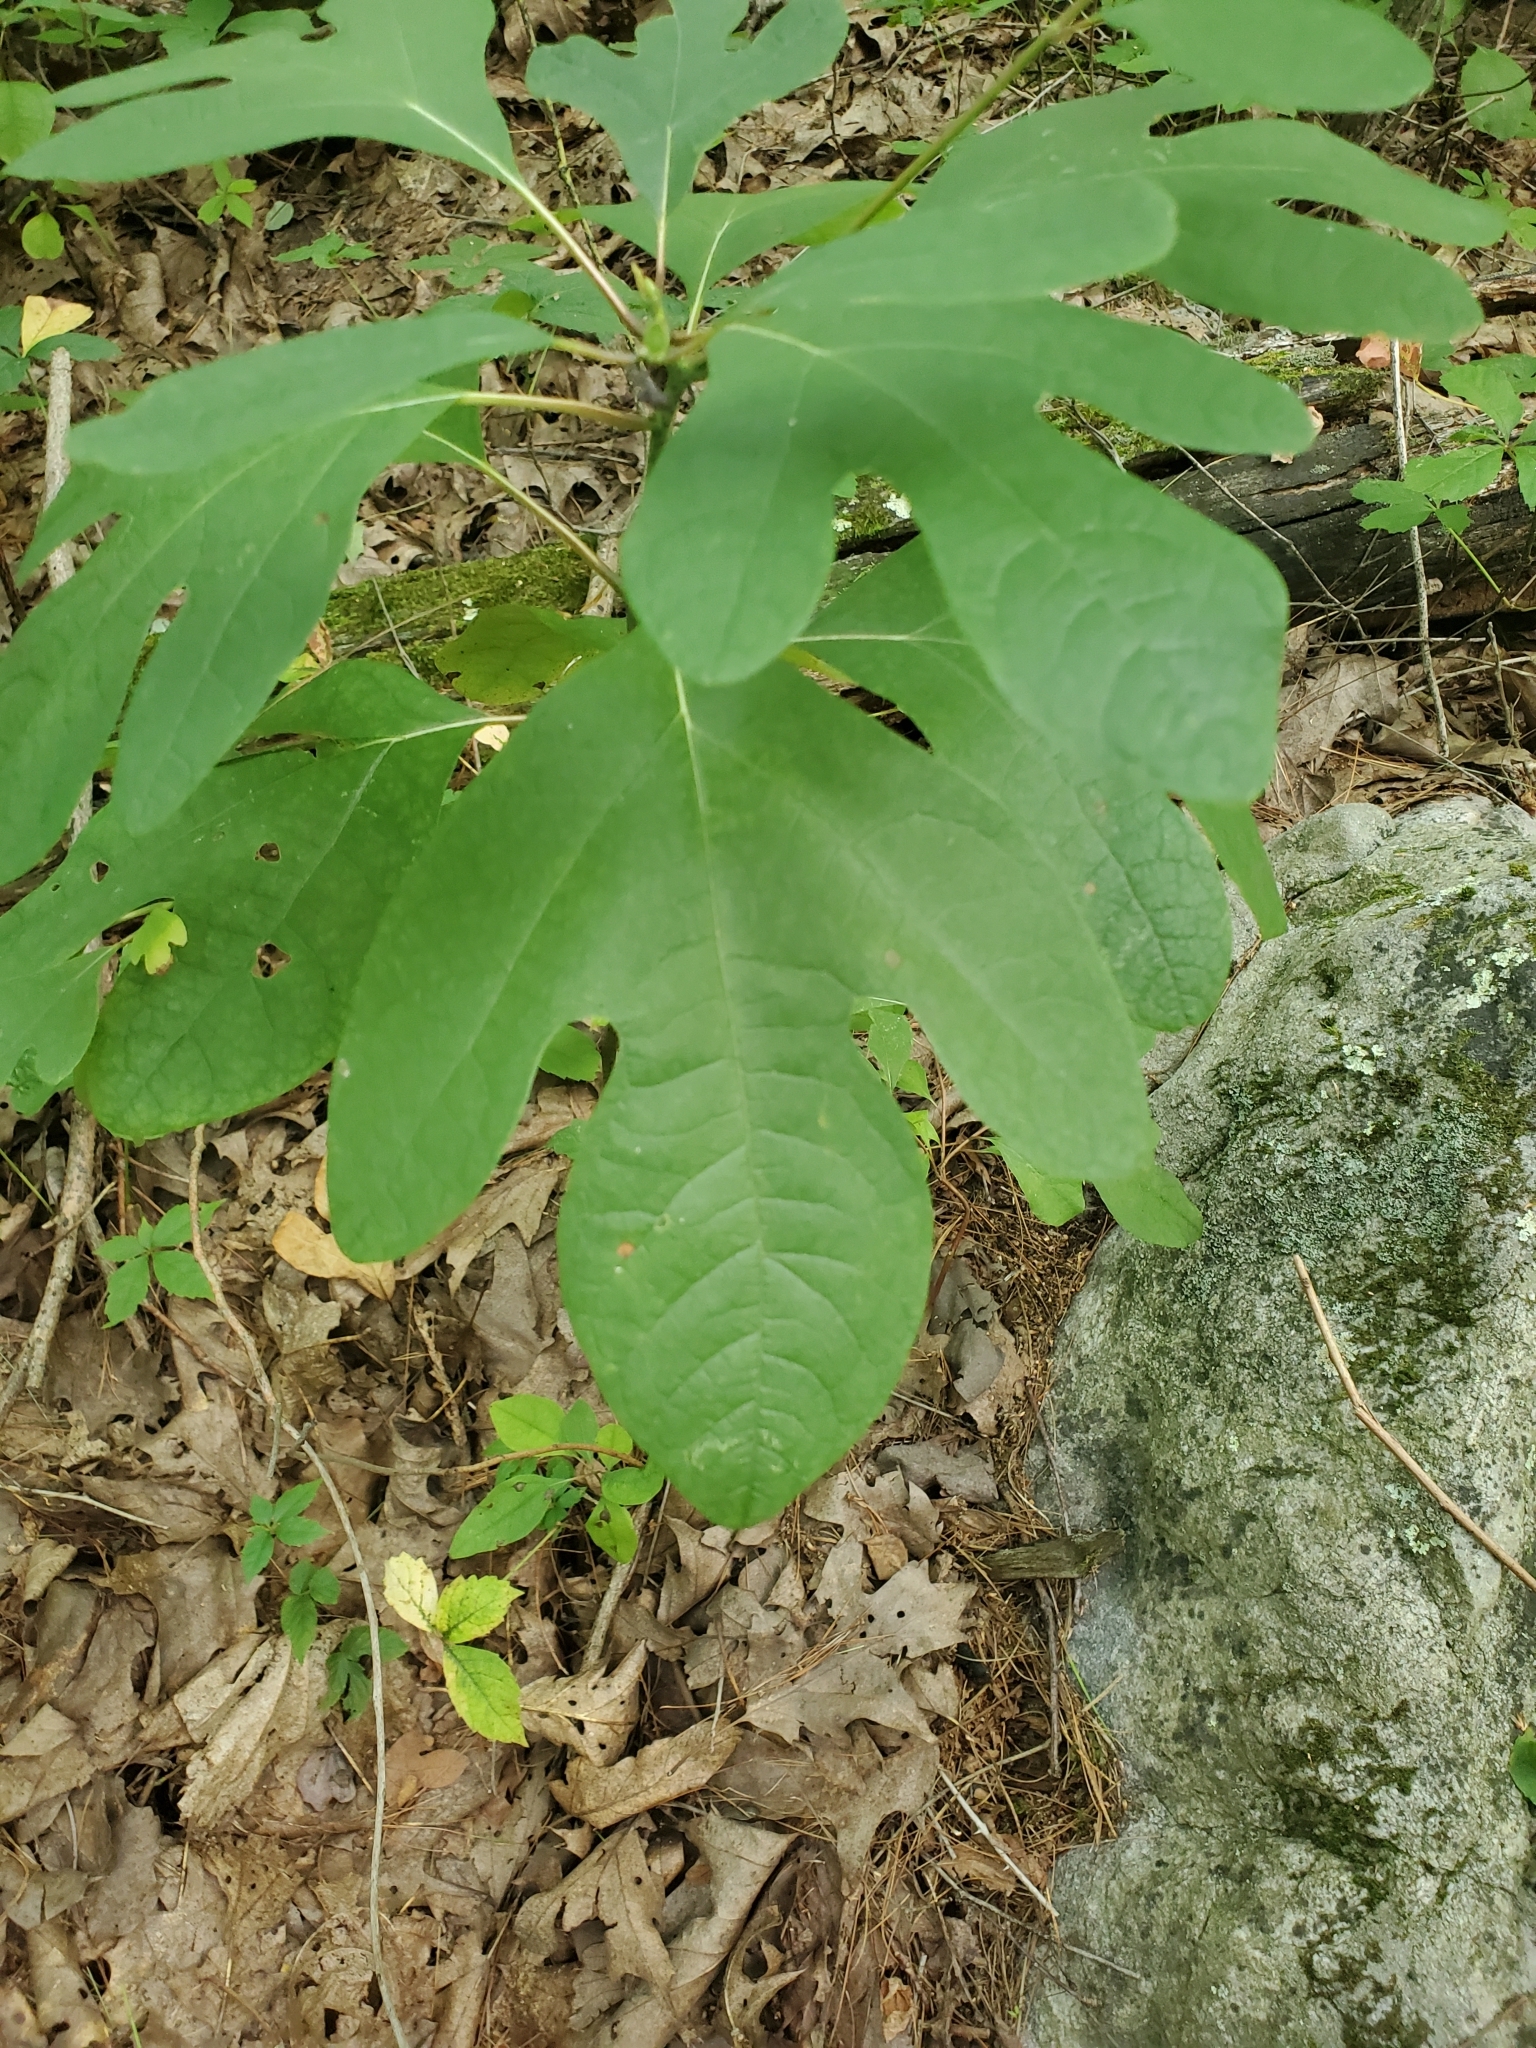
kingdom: Plantae
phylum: Tracheophyta
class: Magnoliopsida
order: Laurales
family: Lauraceae
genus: Sassafras
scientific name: Sassafras albidum
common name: Sassafras
